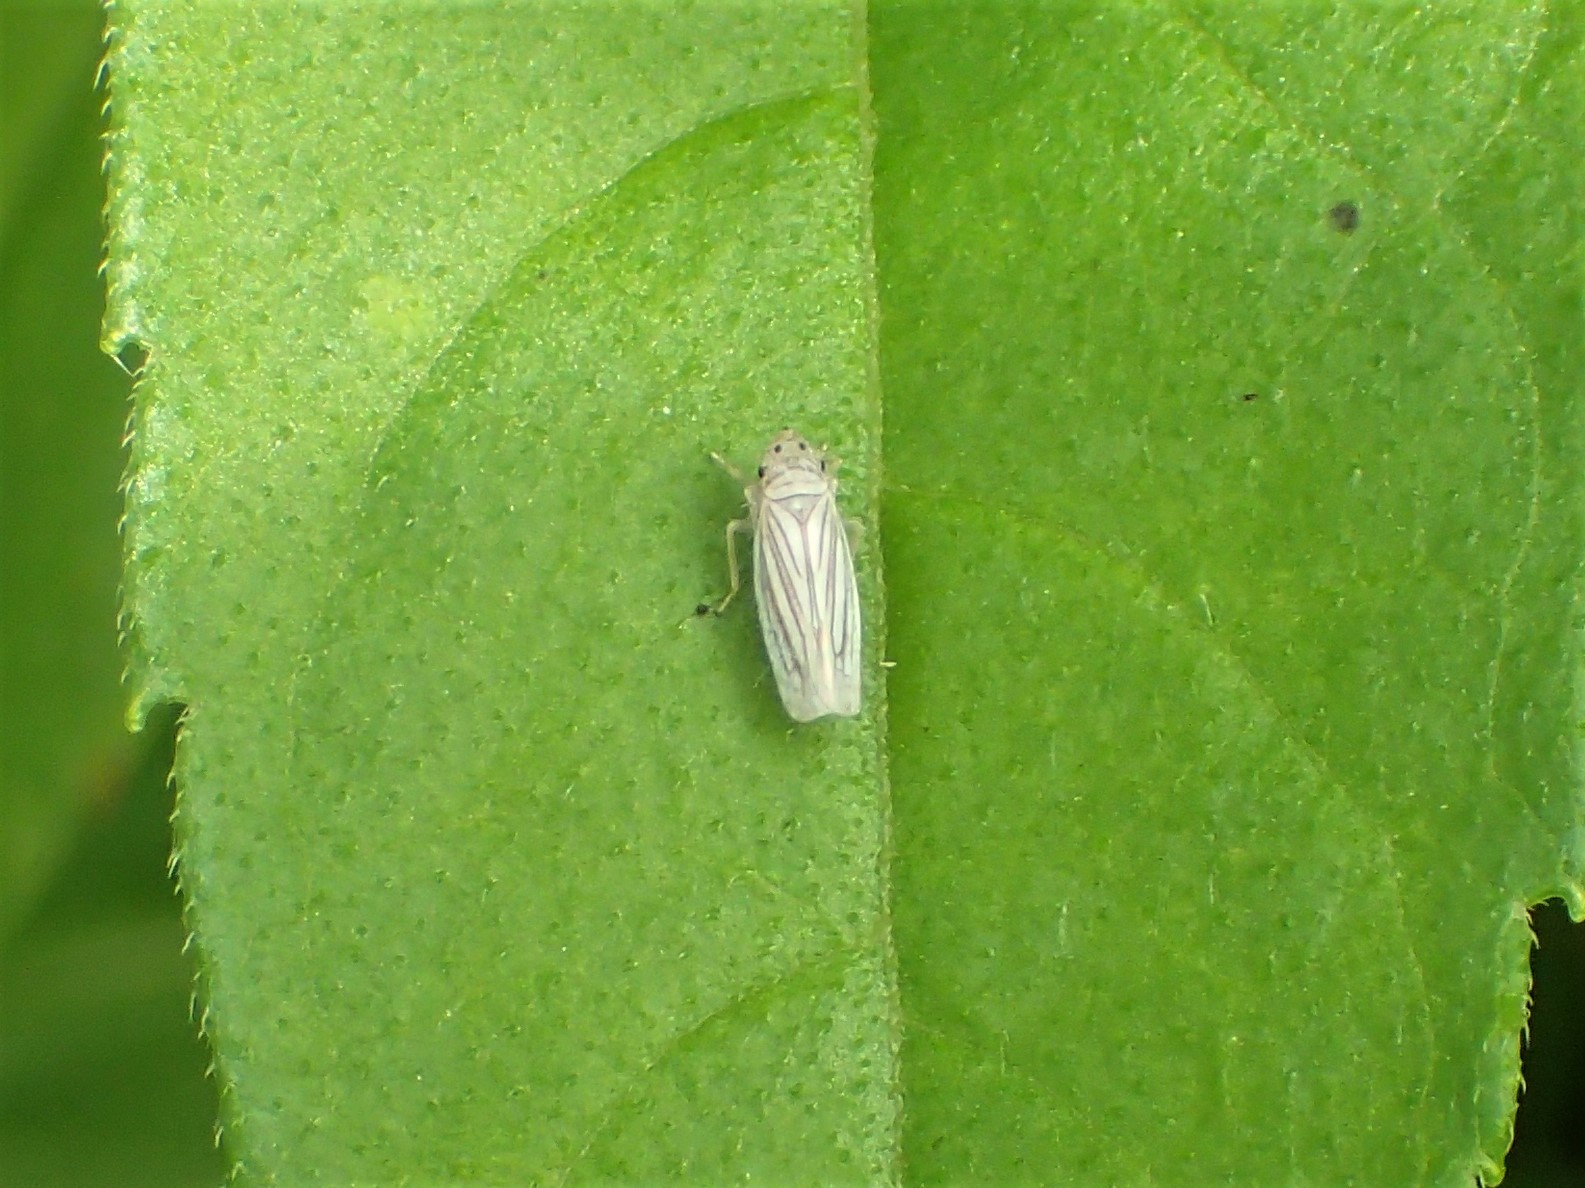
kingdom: Animalia
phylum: Arthropoda
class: Insecta
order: Hemiptera
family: Cicadellidae
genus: Provancherana
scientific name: Provancherana tripunctata
